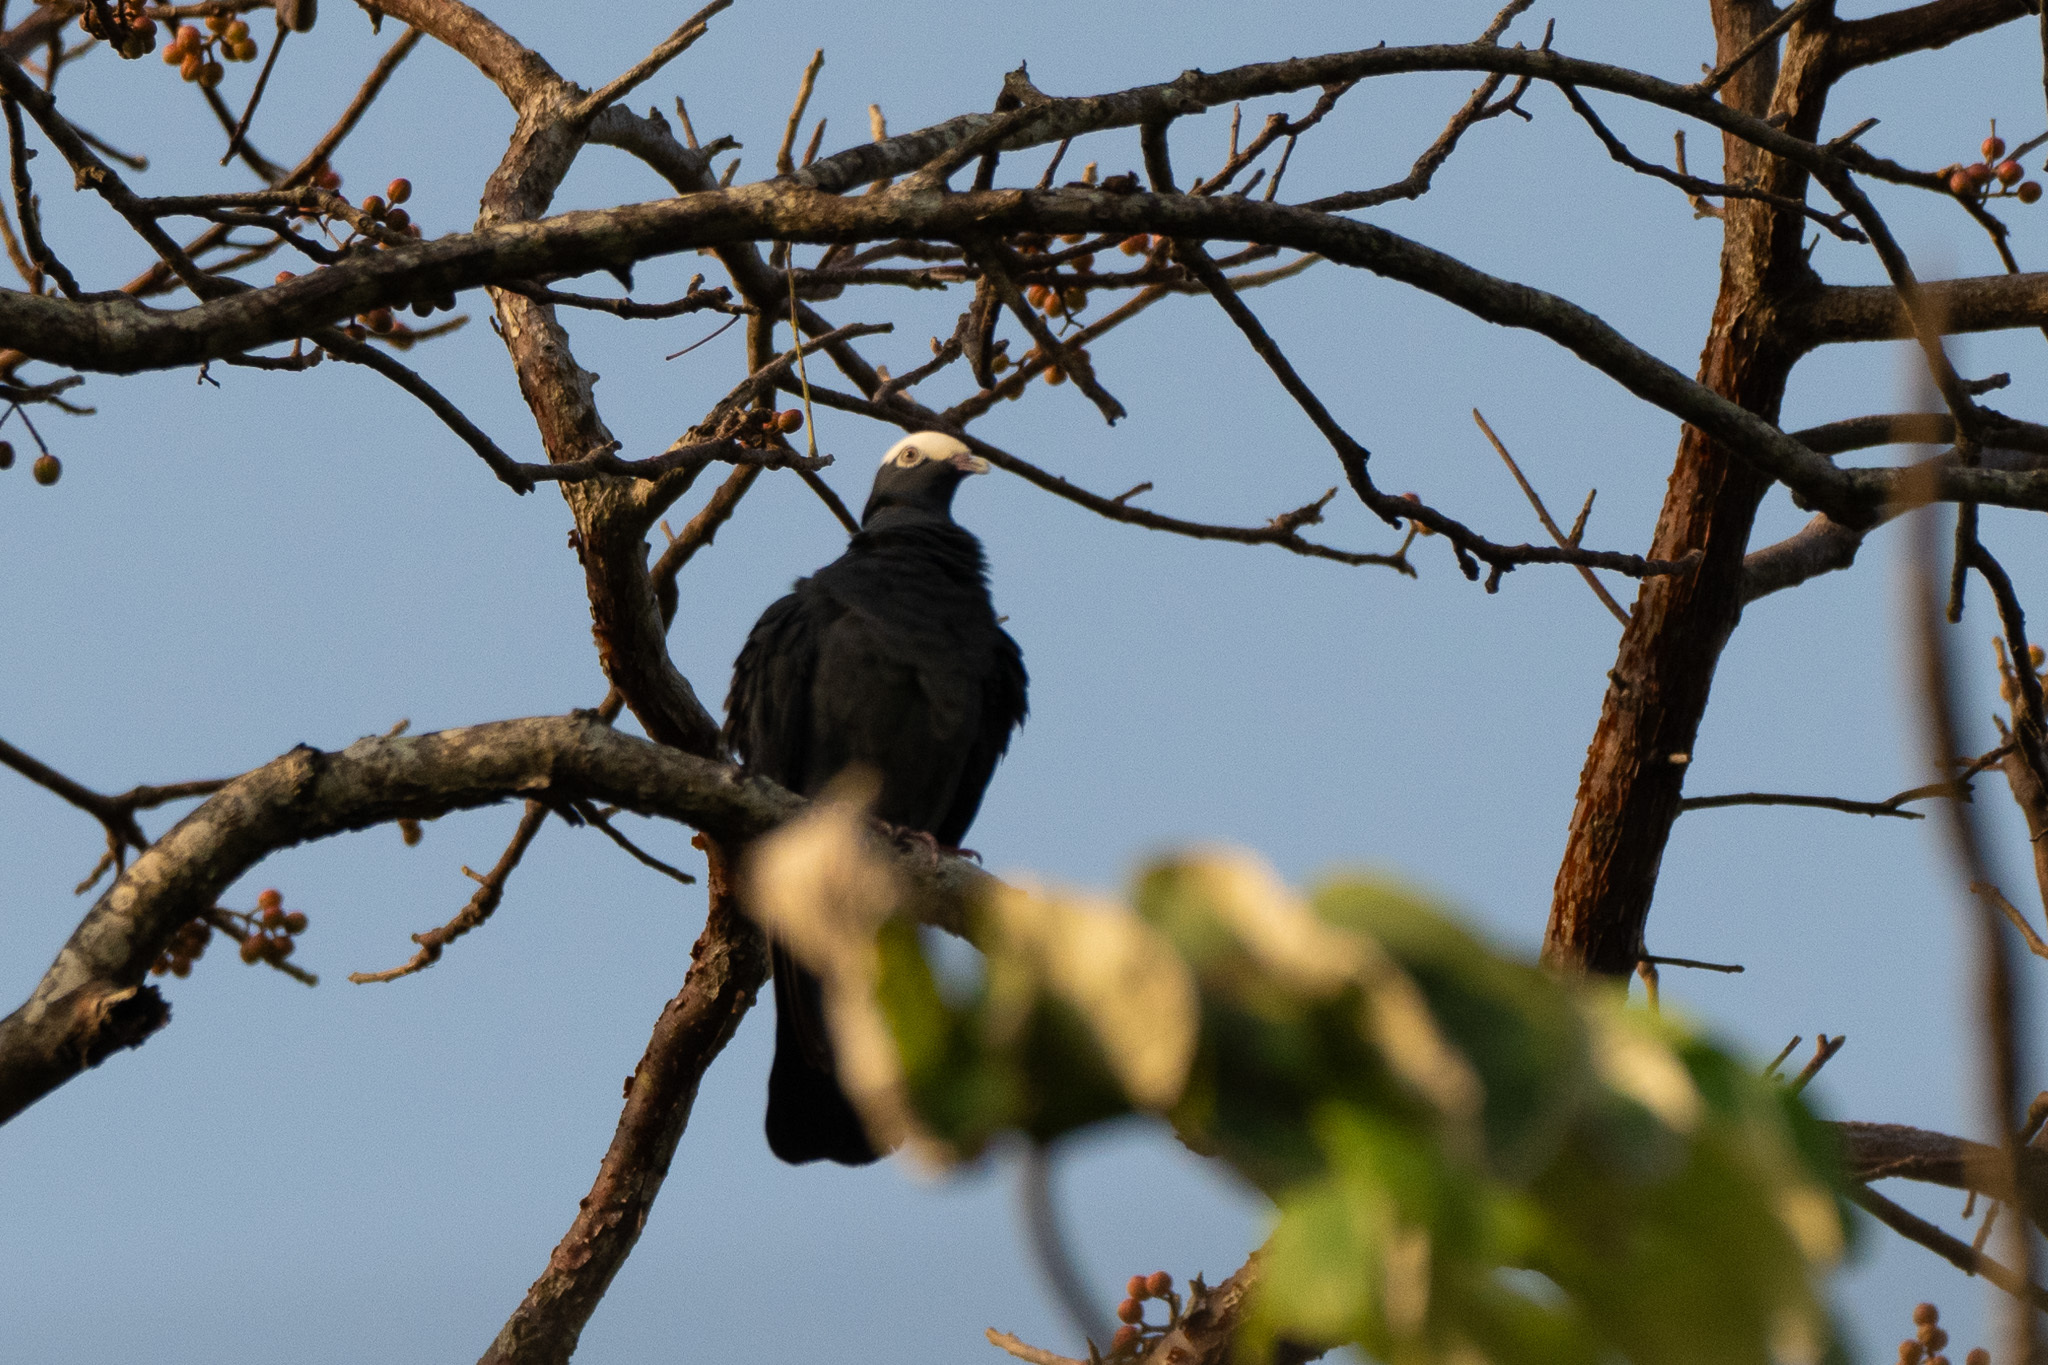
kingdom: Animalia
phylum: Chordata
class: Aves
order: Columbiformes
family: Columbidae
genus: Patagioenas
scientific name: Patagioenas leucocephala
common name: White-crowned pigeon
